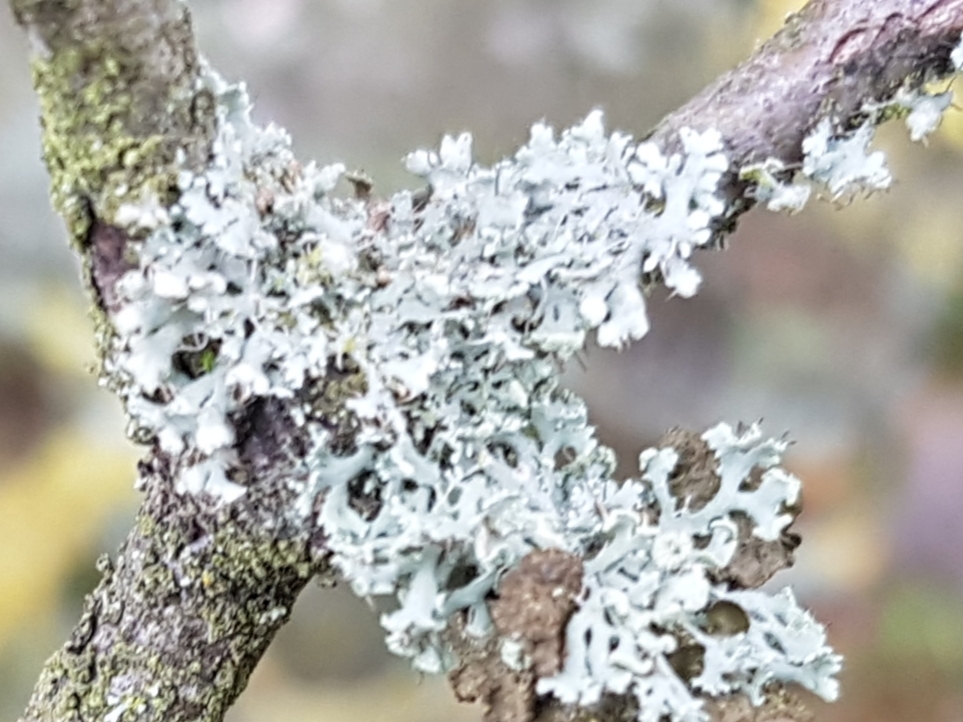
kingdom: Fungi
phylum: Ascomycota
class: Lecanoromycetes
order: Caliciales
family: Physciaceae
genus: Physcia
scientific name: Physcia tenella
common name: Fringed rosette lichen
